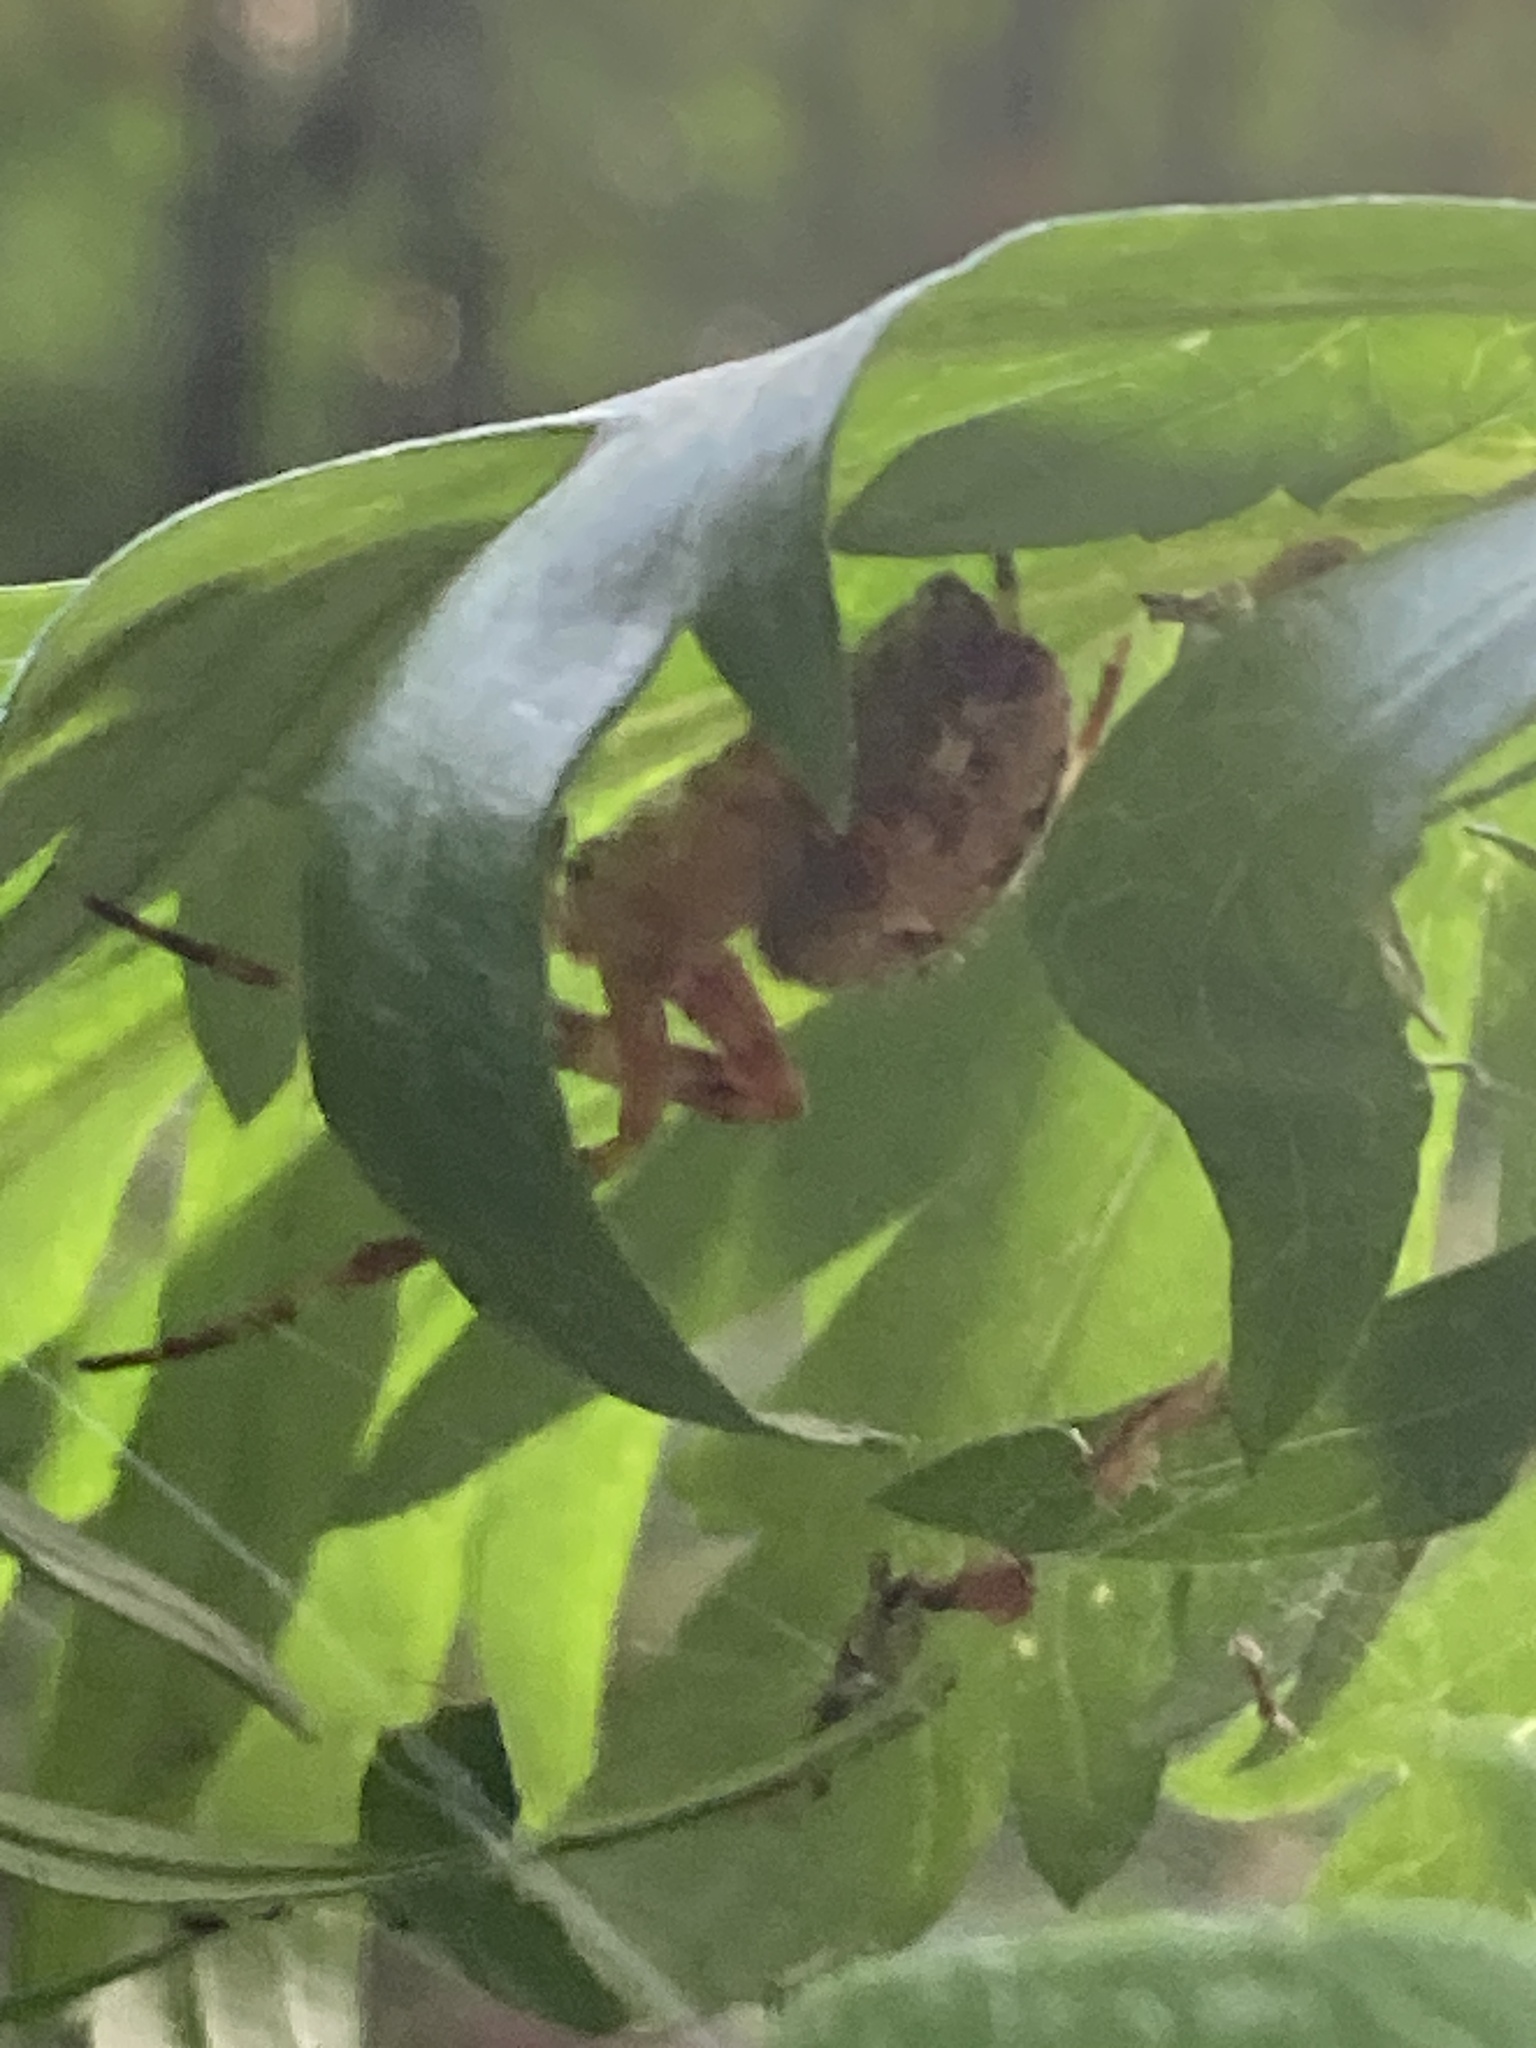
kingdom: Animalia
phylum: Arthropoda
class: Arachnida
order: Araneae
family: Araneidae
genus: Araneus
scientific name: Araneus diadematus
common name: Cross orbweaver
